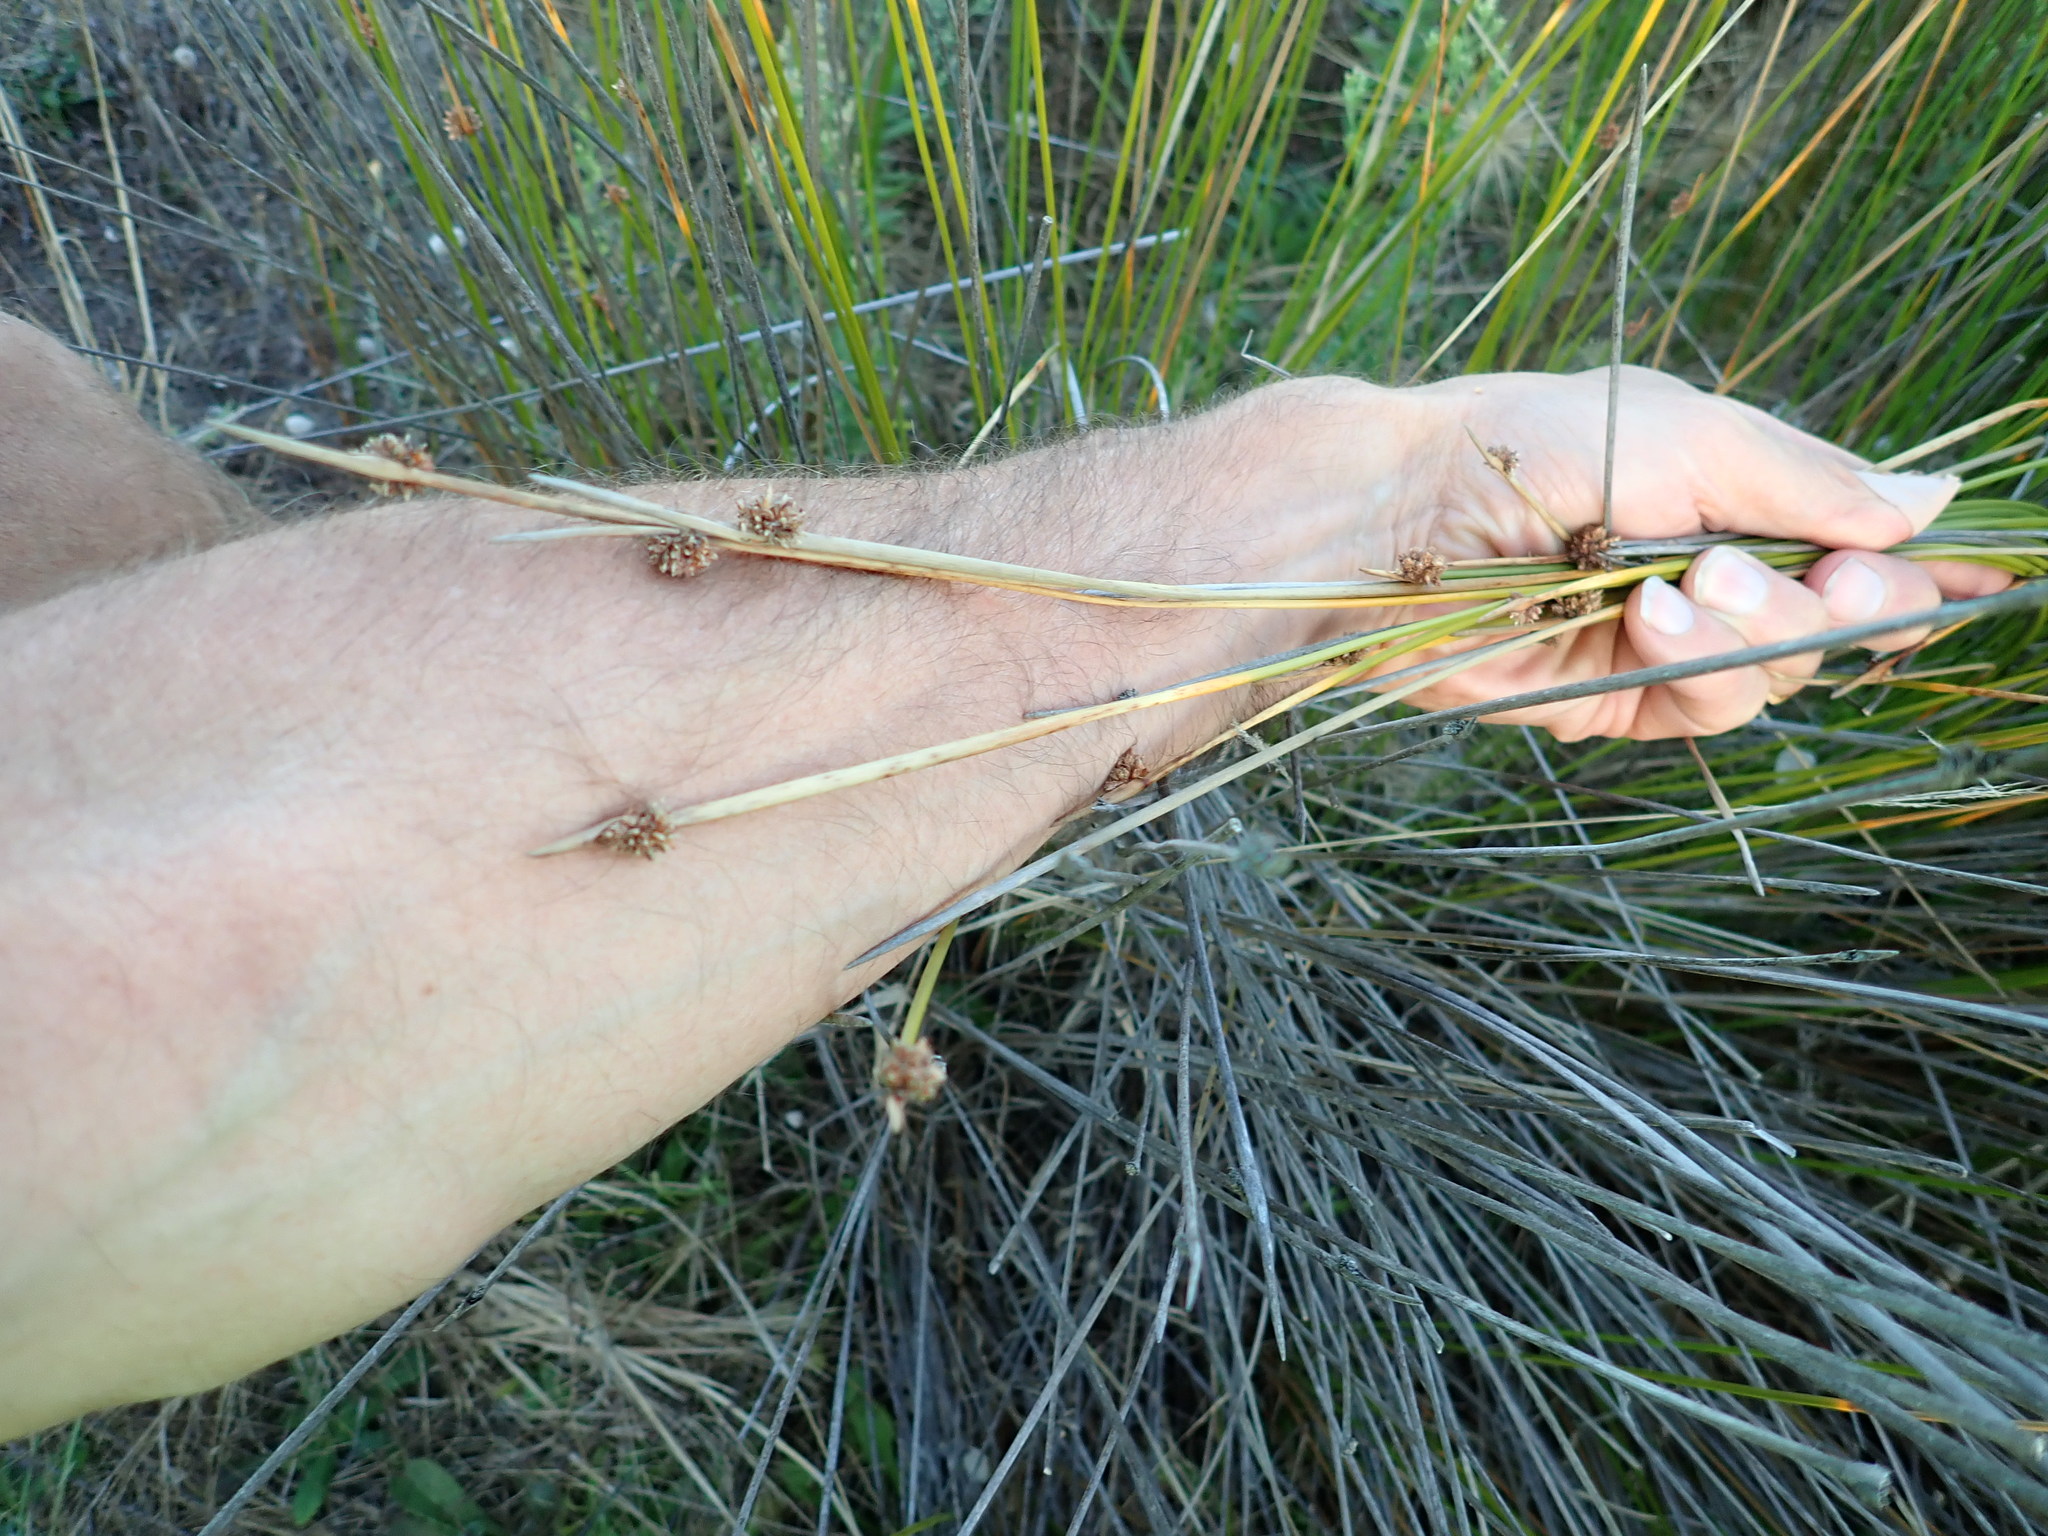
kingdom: Plantae
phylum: Tracheophyta
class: Liliopsida
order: Poales
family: Cyperaceae
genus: Ficinia
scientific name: Ficinia nodosa
